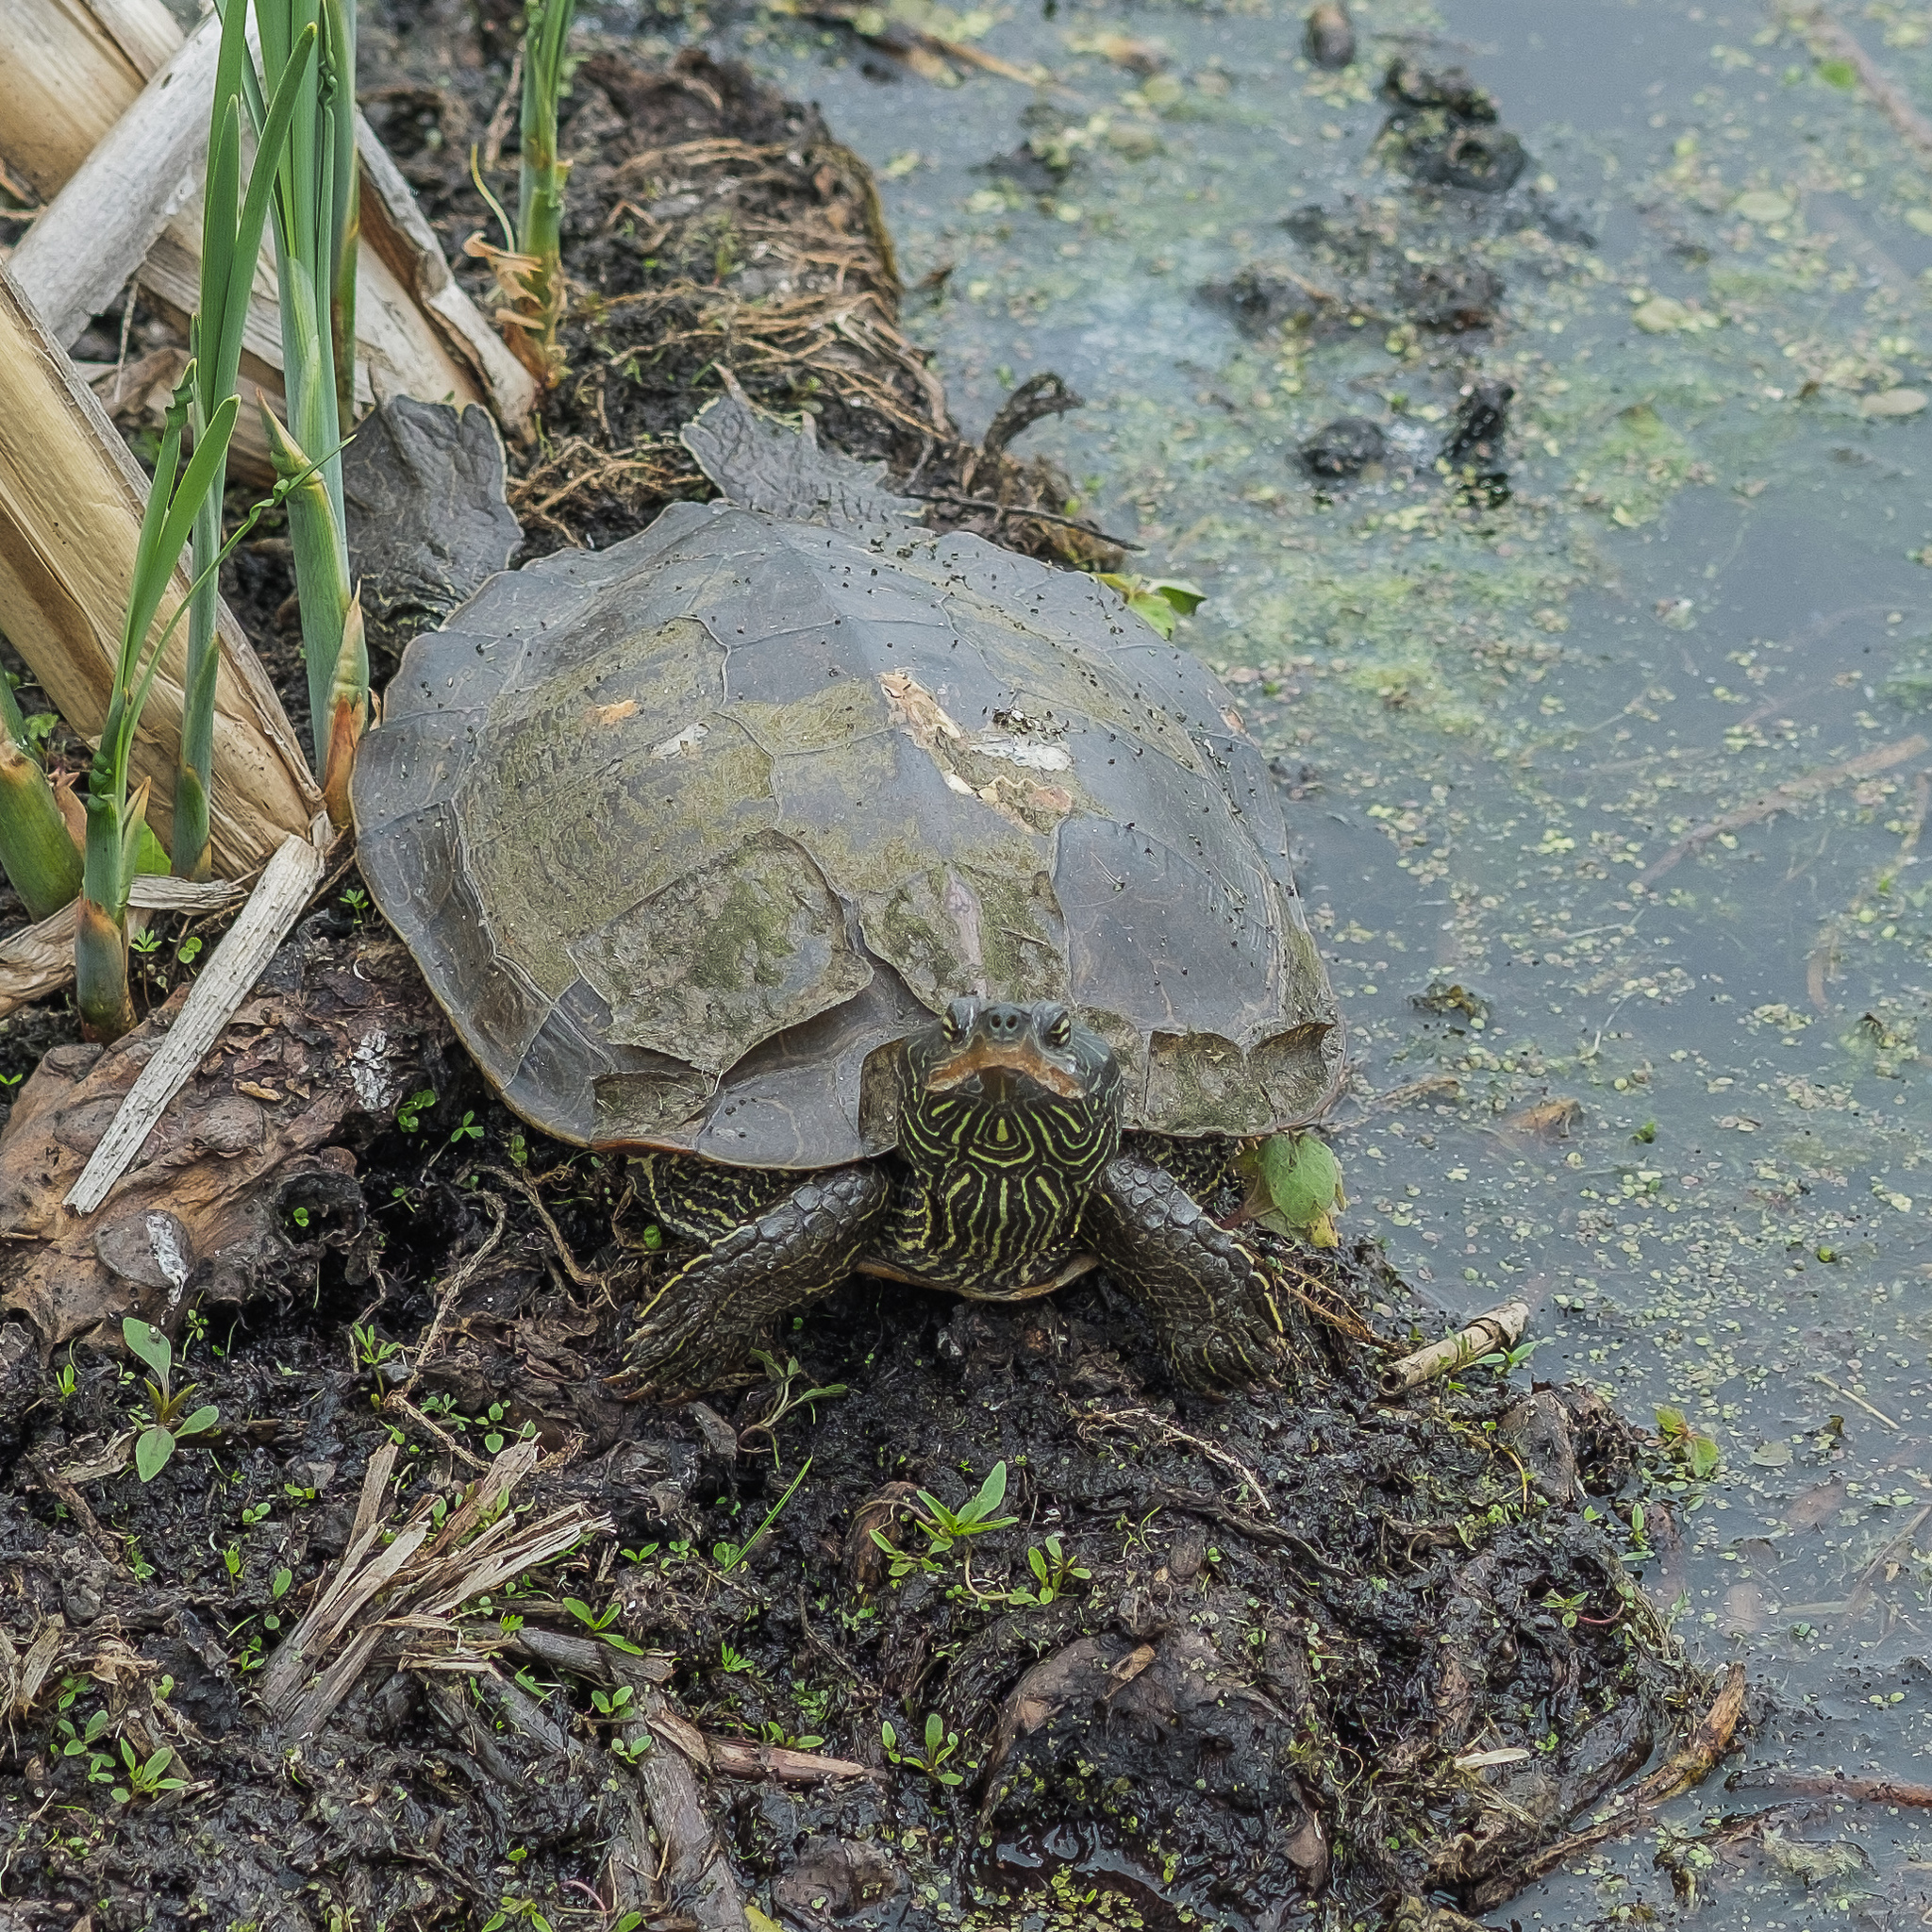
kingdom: Animalia
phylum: Chordata
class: Testudines
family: Emydidae
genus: Graptemys
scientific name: Graptemys geographica
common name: Common map turtle
